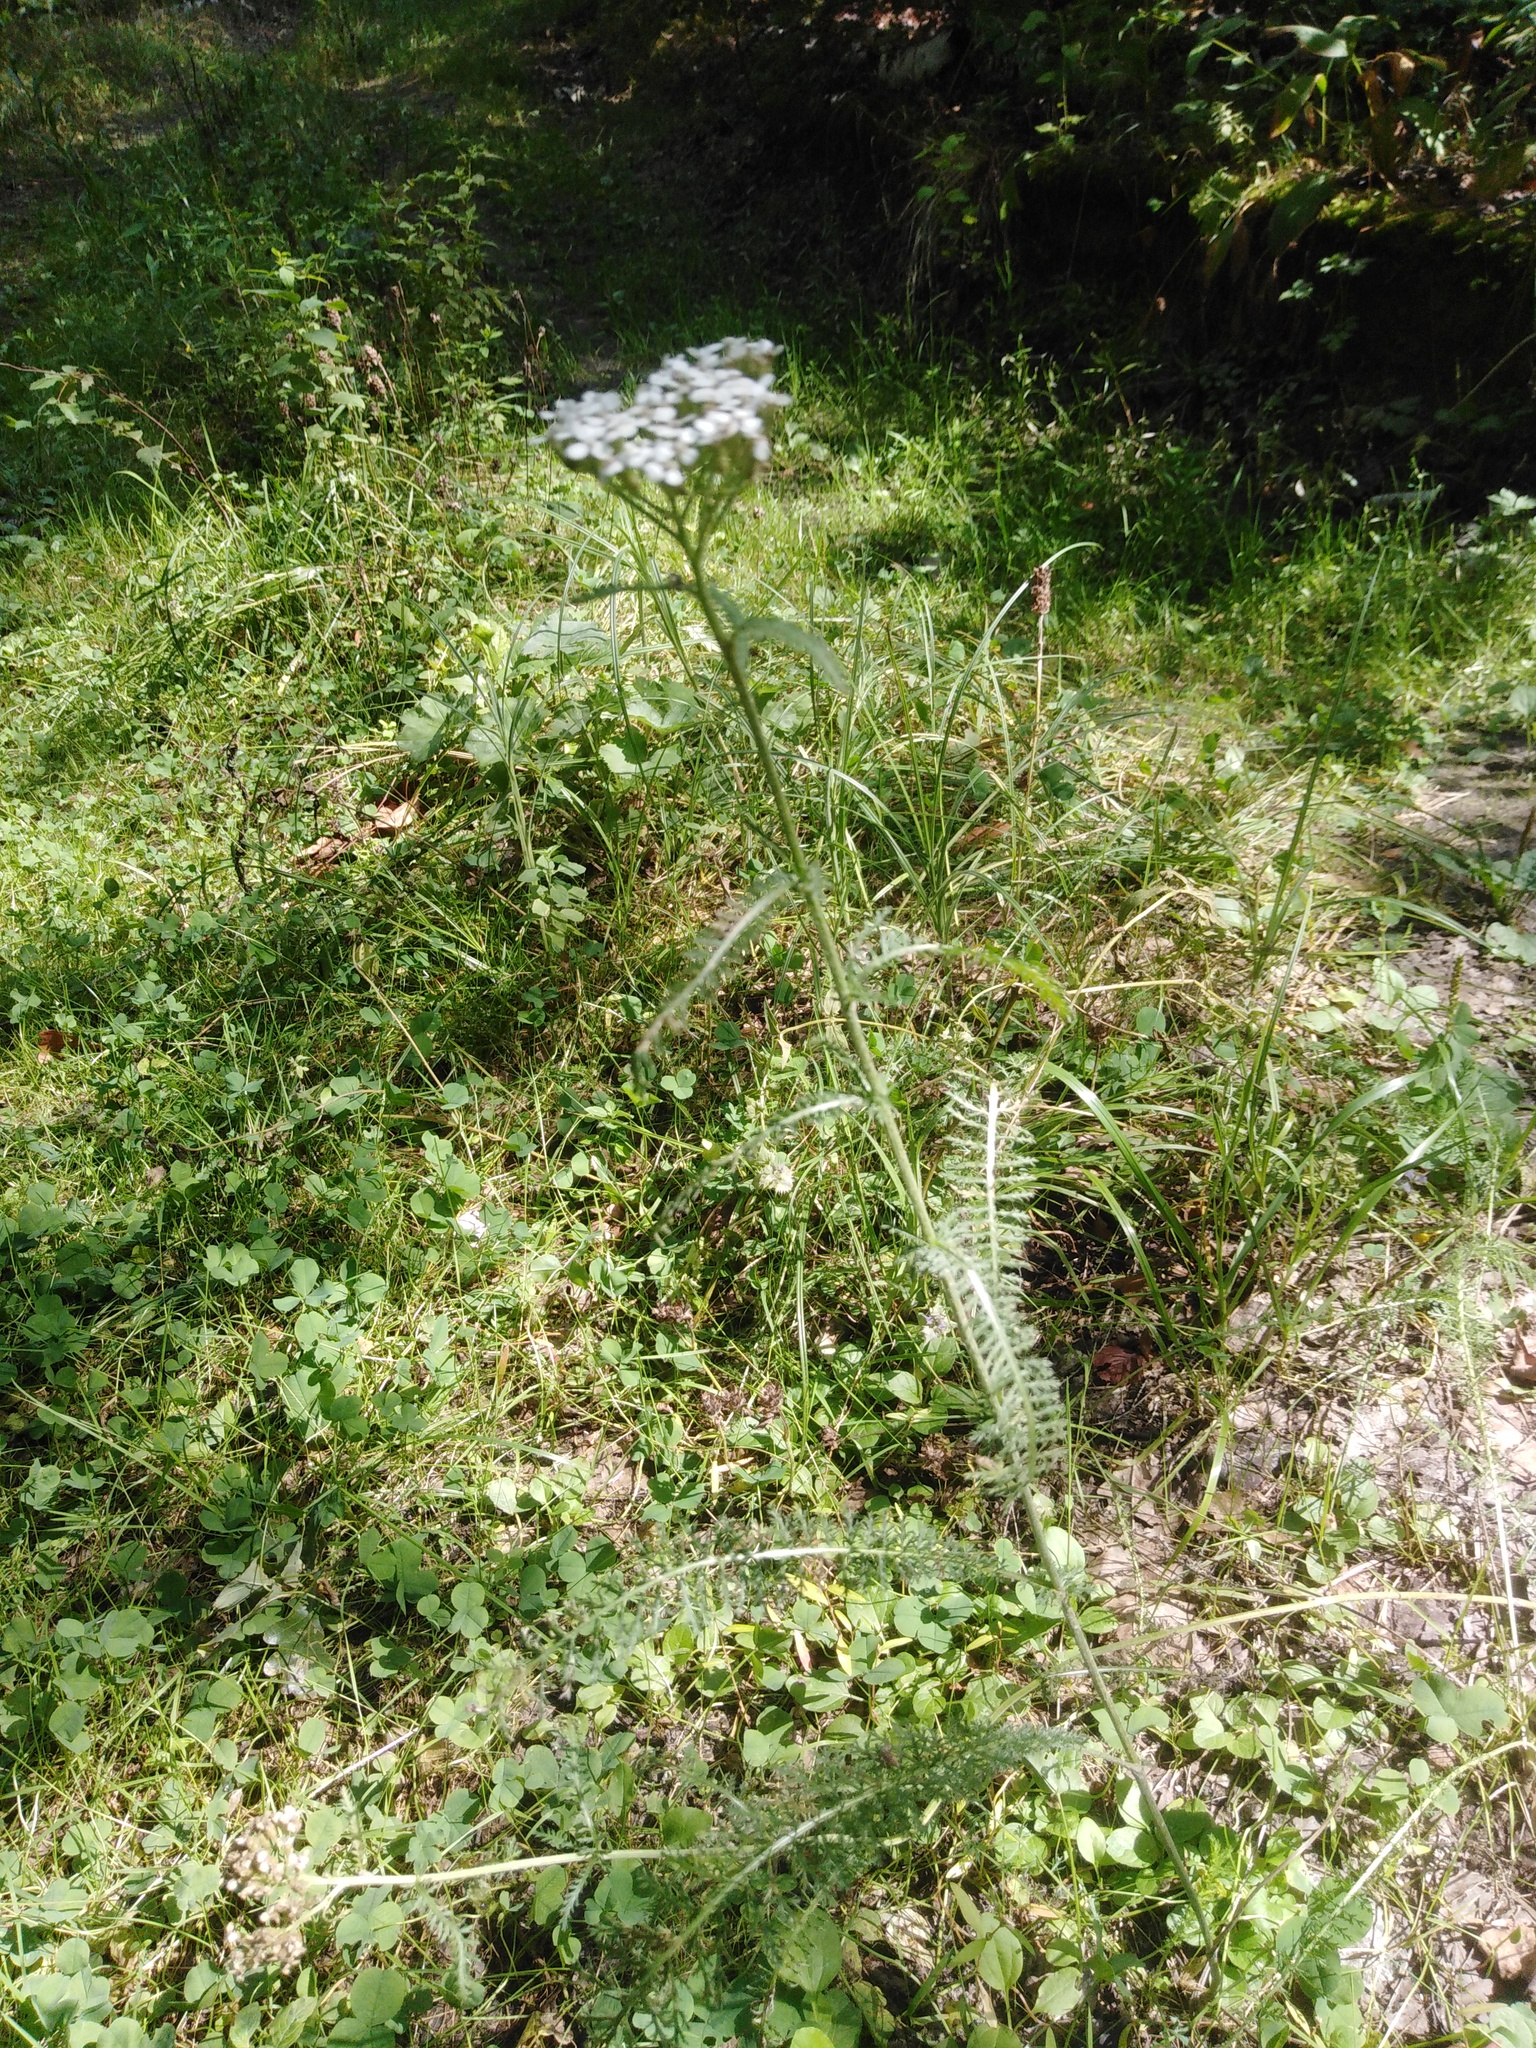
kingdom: Plantae
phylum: Tracheophyta
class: Magnoliopsida
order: Asterales
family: Asteraceae
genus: Achillea
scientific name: Achillea millefolium
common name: Yarrow
